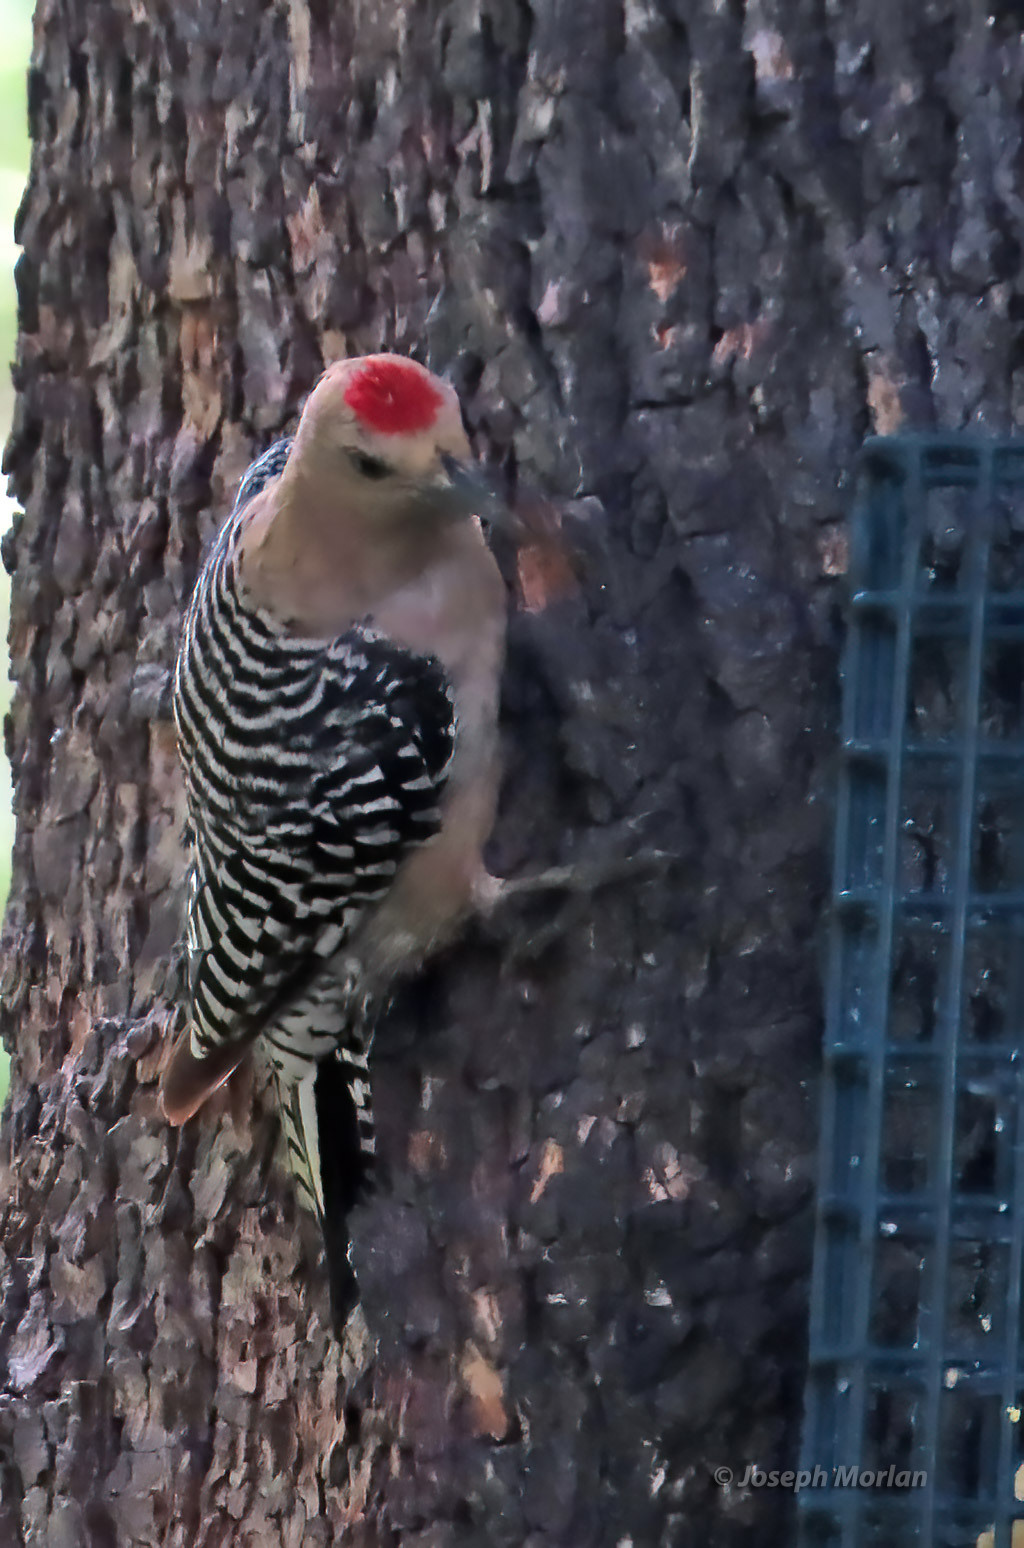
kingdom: Animalia
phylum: Chordata
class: Aves
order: Piciformes
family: Picidae
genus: Melanerpes
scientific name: Melanerpes uropygialis
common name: Gila woodpecker
